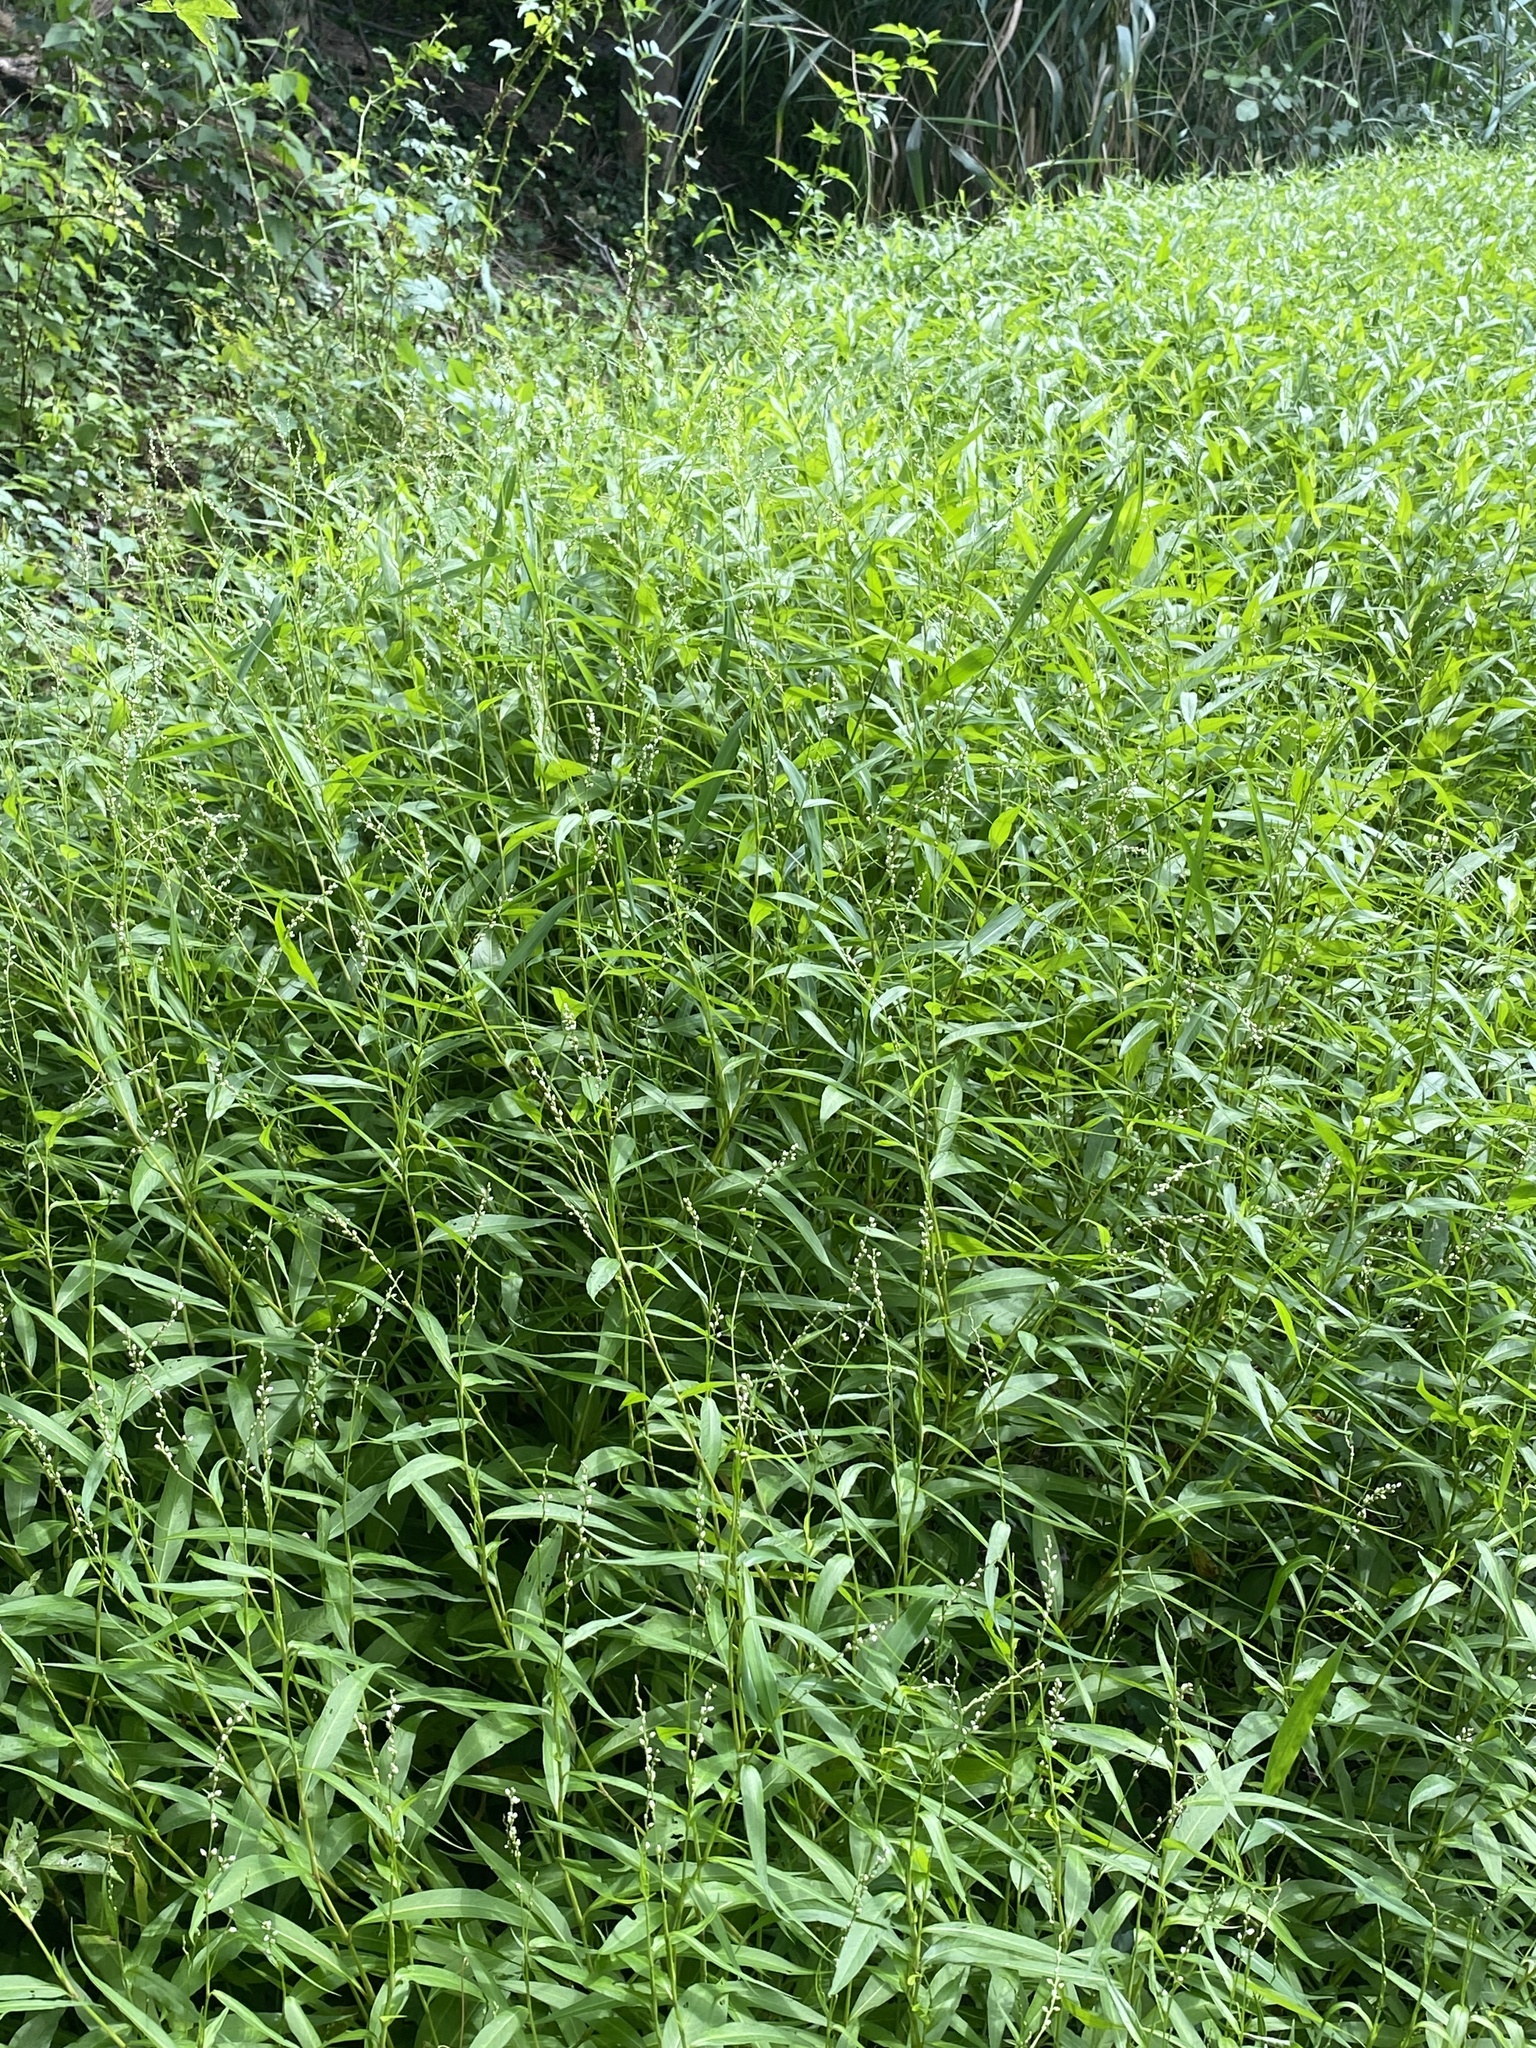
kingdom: Plantae
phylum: Tracheophyta
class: Magnoliopsida
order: Caryophyllales
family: Polygonaceae
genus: Persicaria
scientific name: Persicaria punctata
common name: Dotted smartweed
